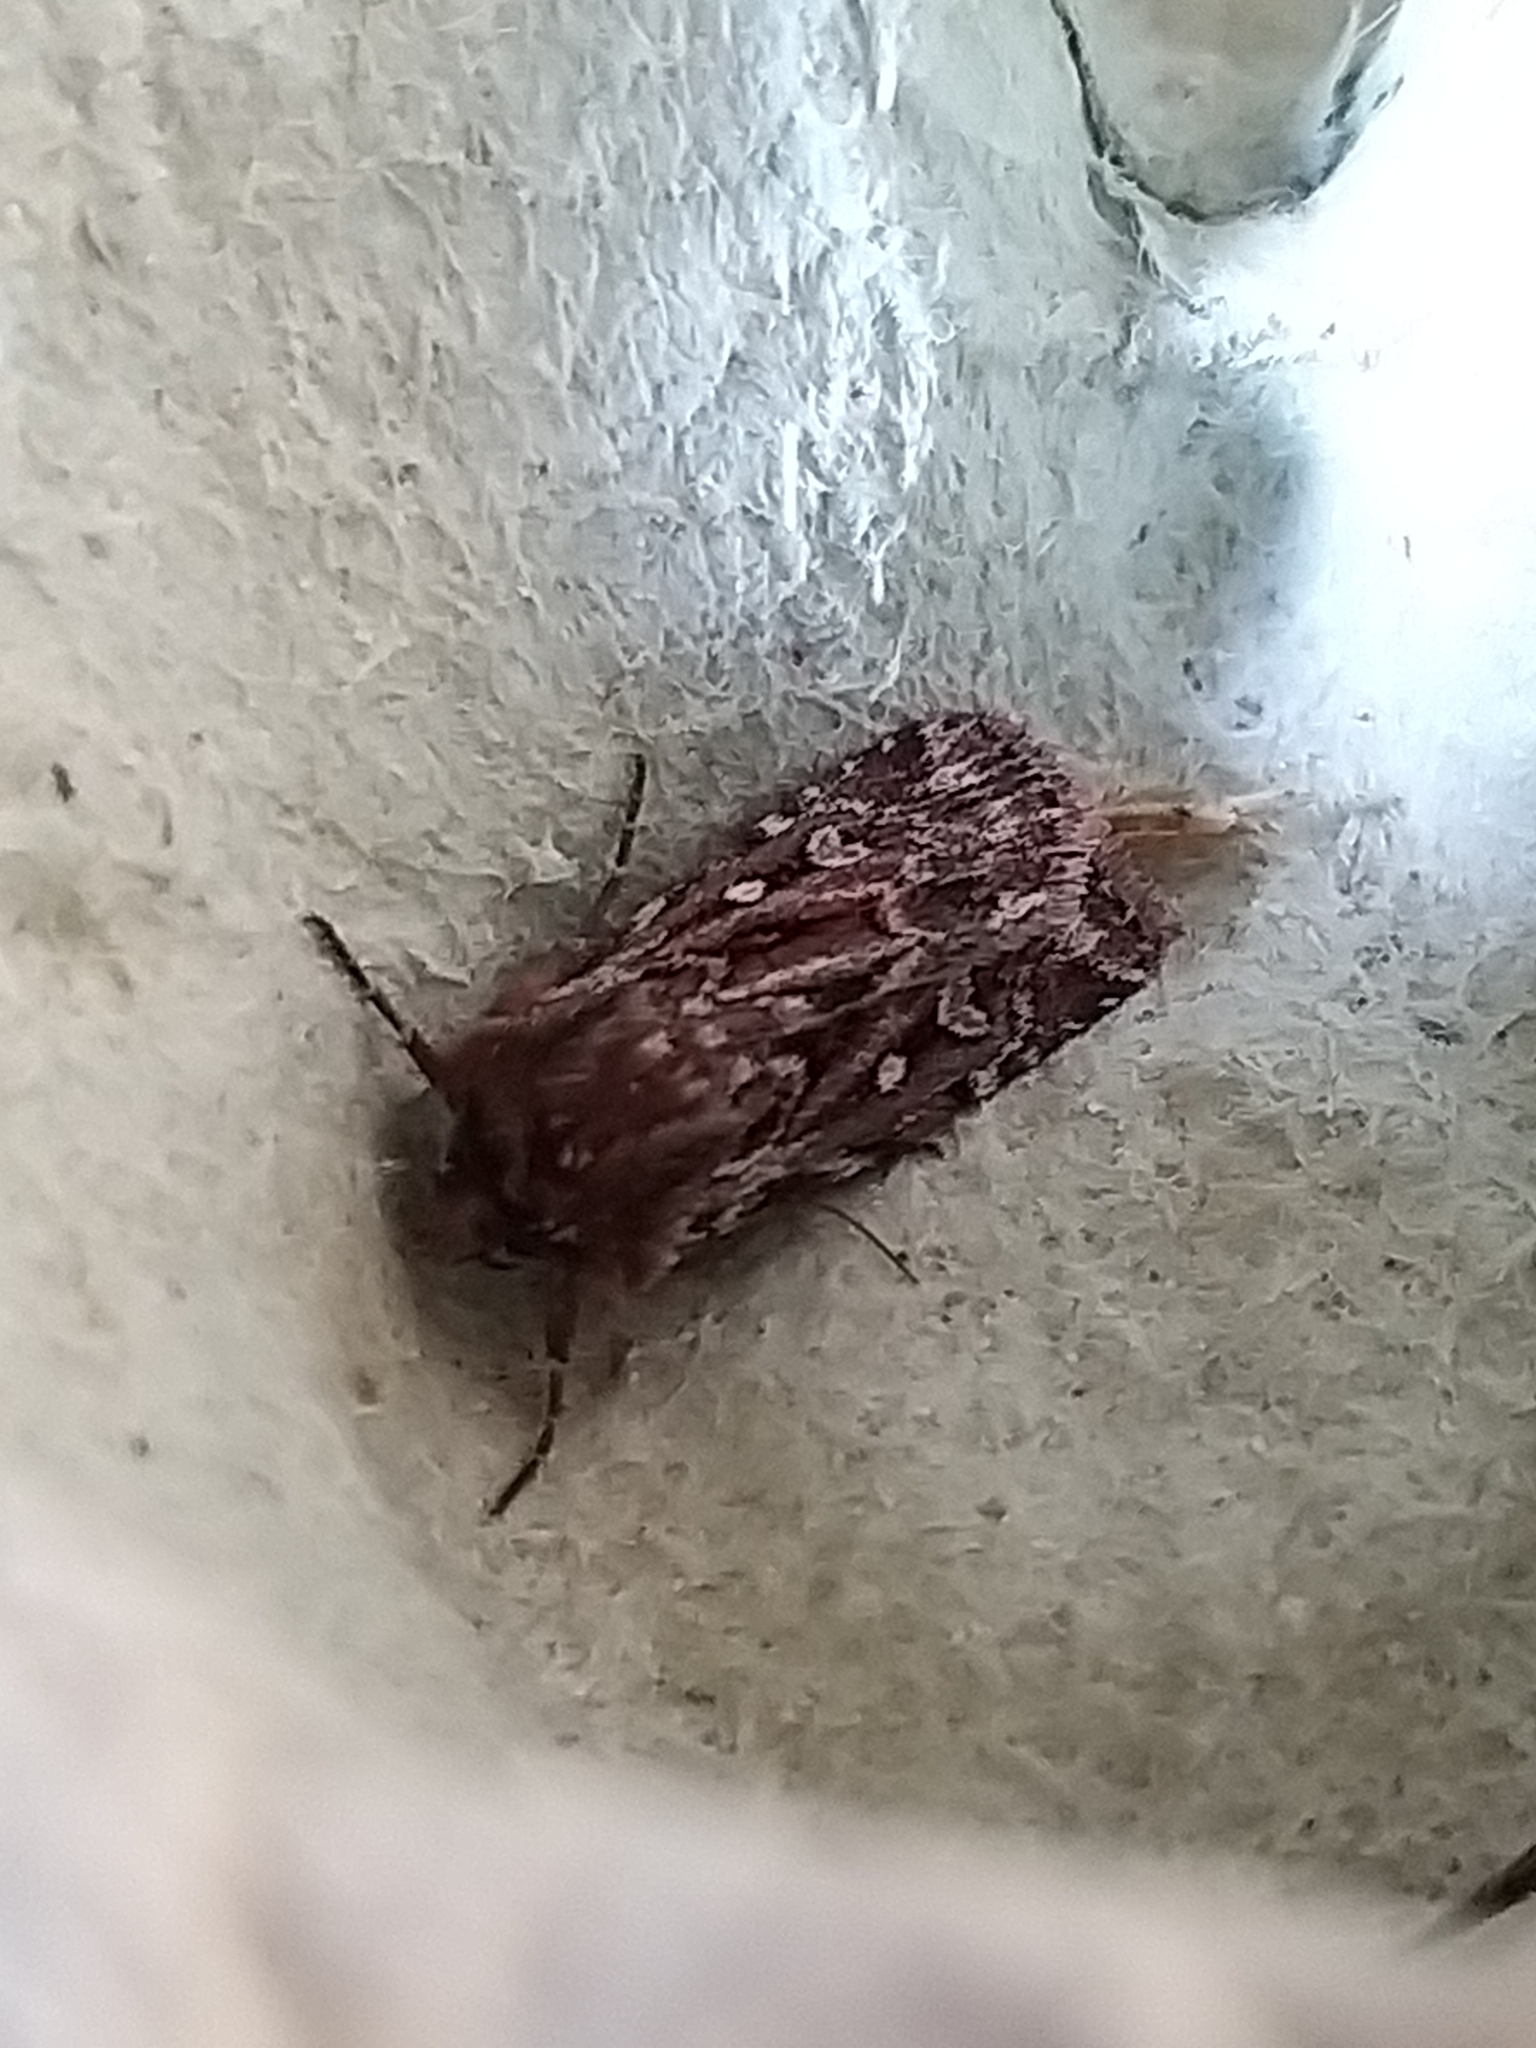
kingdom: Animalia
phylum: Arthropoda
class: Insecta
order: Lepidoptera
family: Noctuidae
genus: Lycophotia
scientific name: Lycophotia porphyrea
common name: True lover's knot
